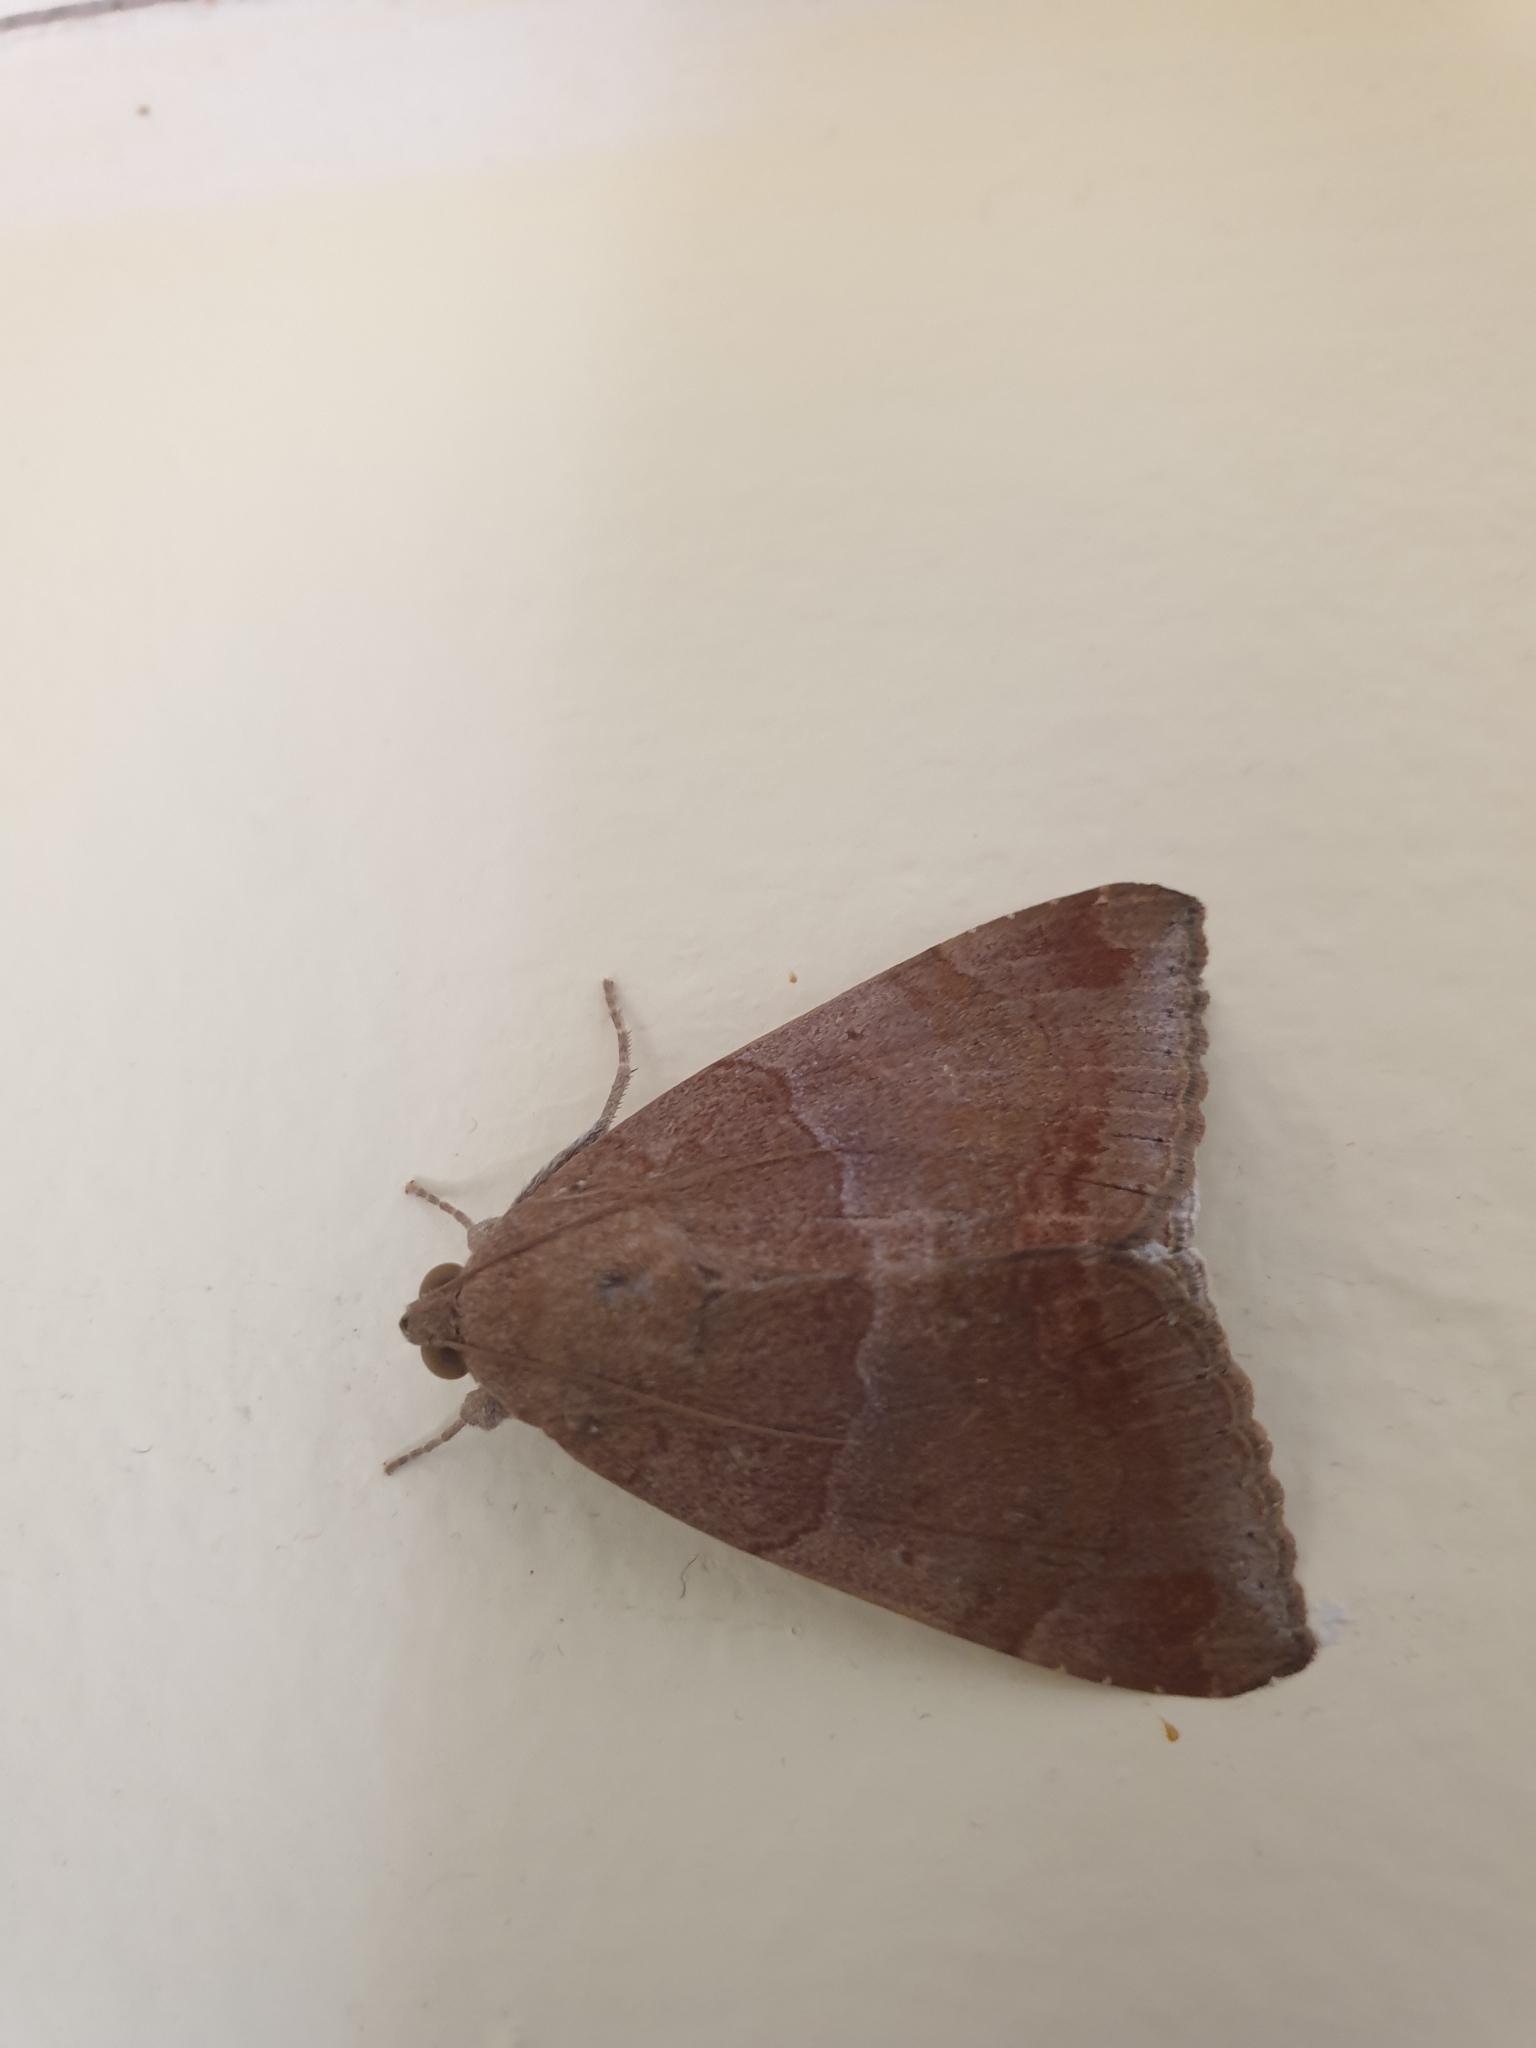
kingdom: Animalia
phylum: Arthropoda
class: Insecta
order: Lepidoptera
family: Erebidae
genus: Achaea
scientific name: Achaea janata
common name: Croton caterpillar
